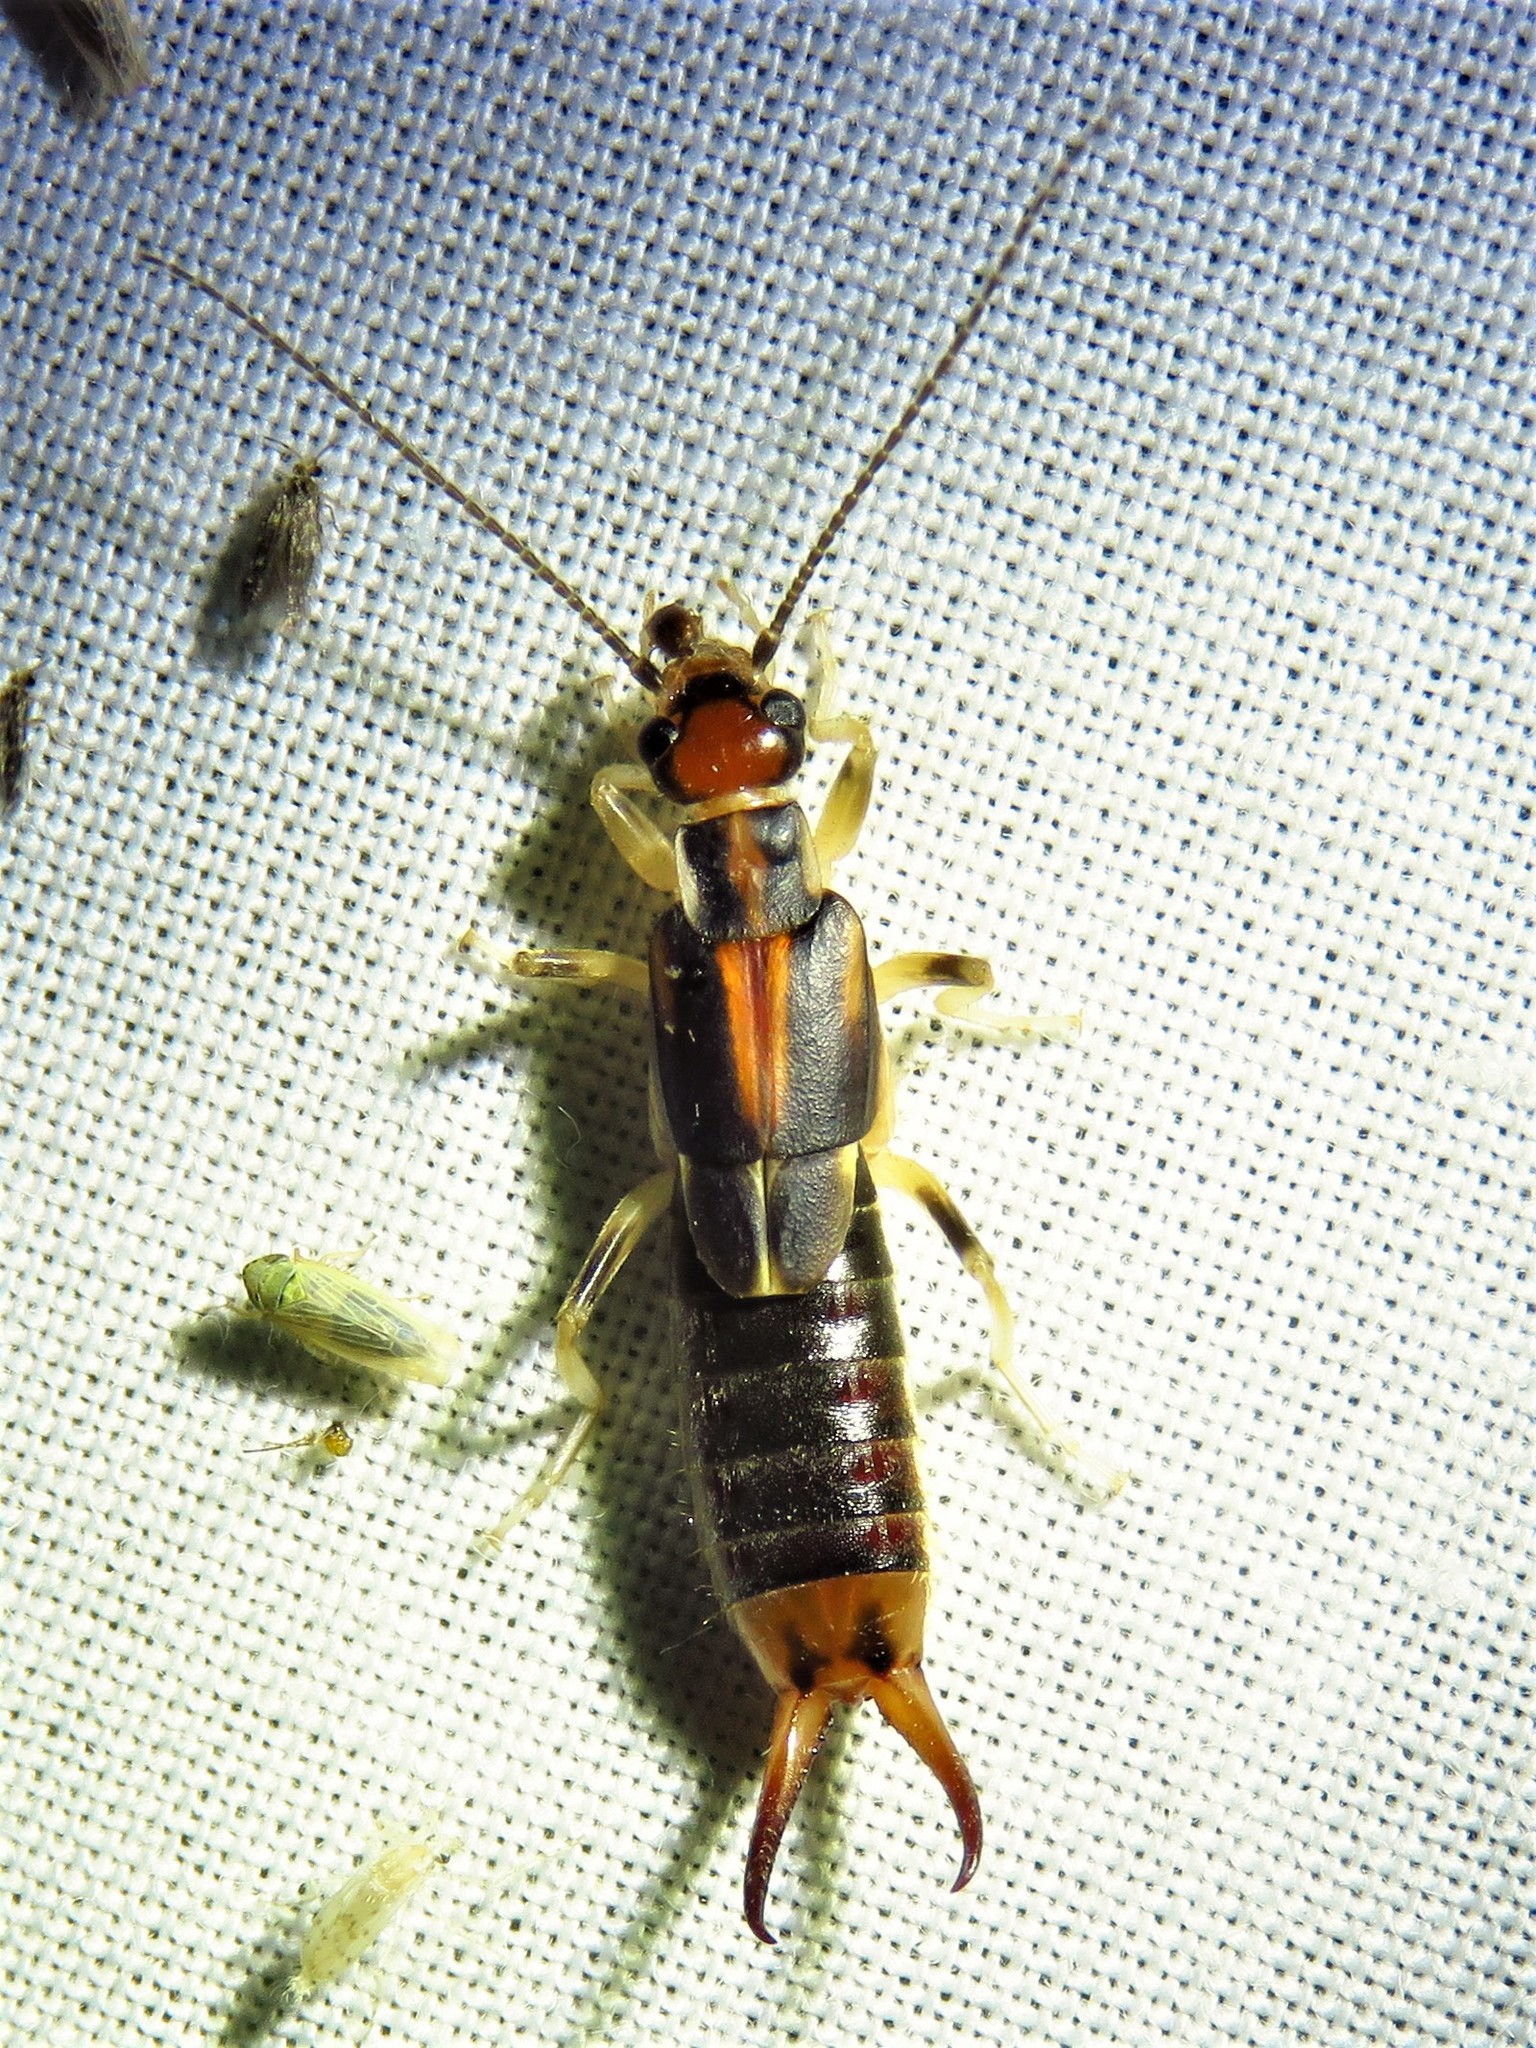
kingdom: Animalia
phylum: Arthropoda
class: Insecta
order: Dermaptera
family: Labiduridae
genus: Labidura
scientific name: Labidura riparia
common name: Striped earwig
